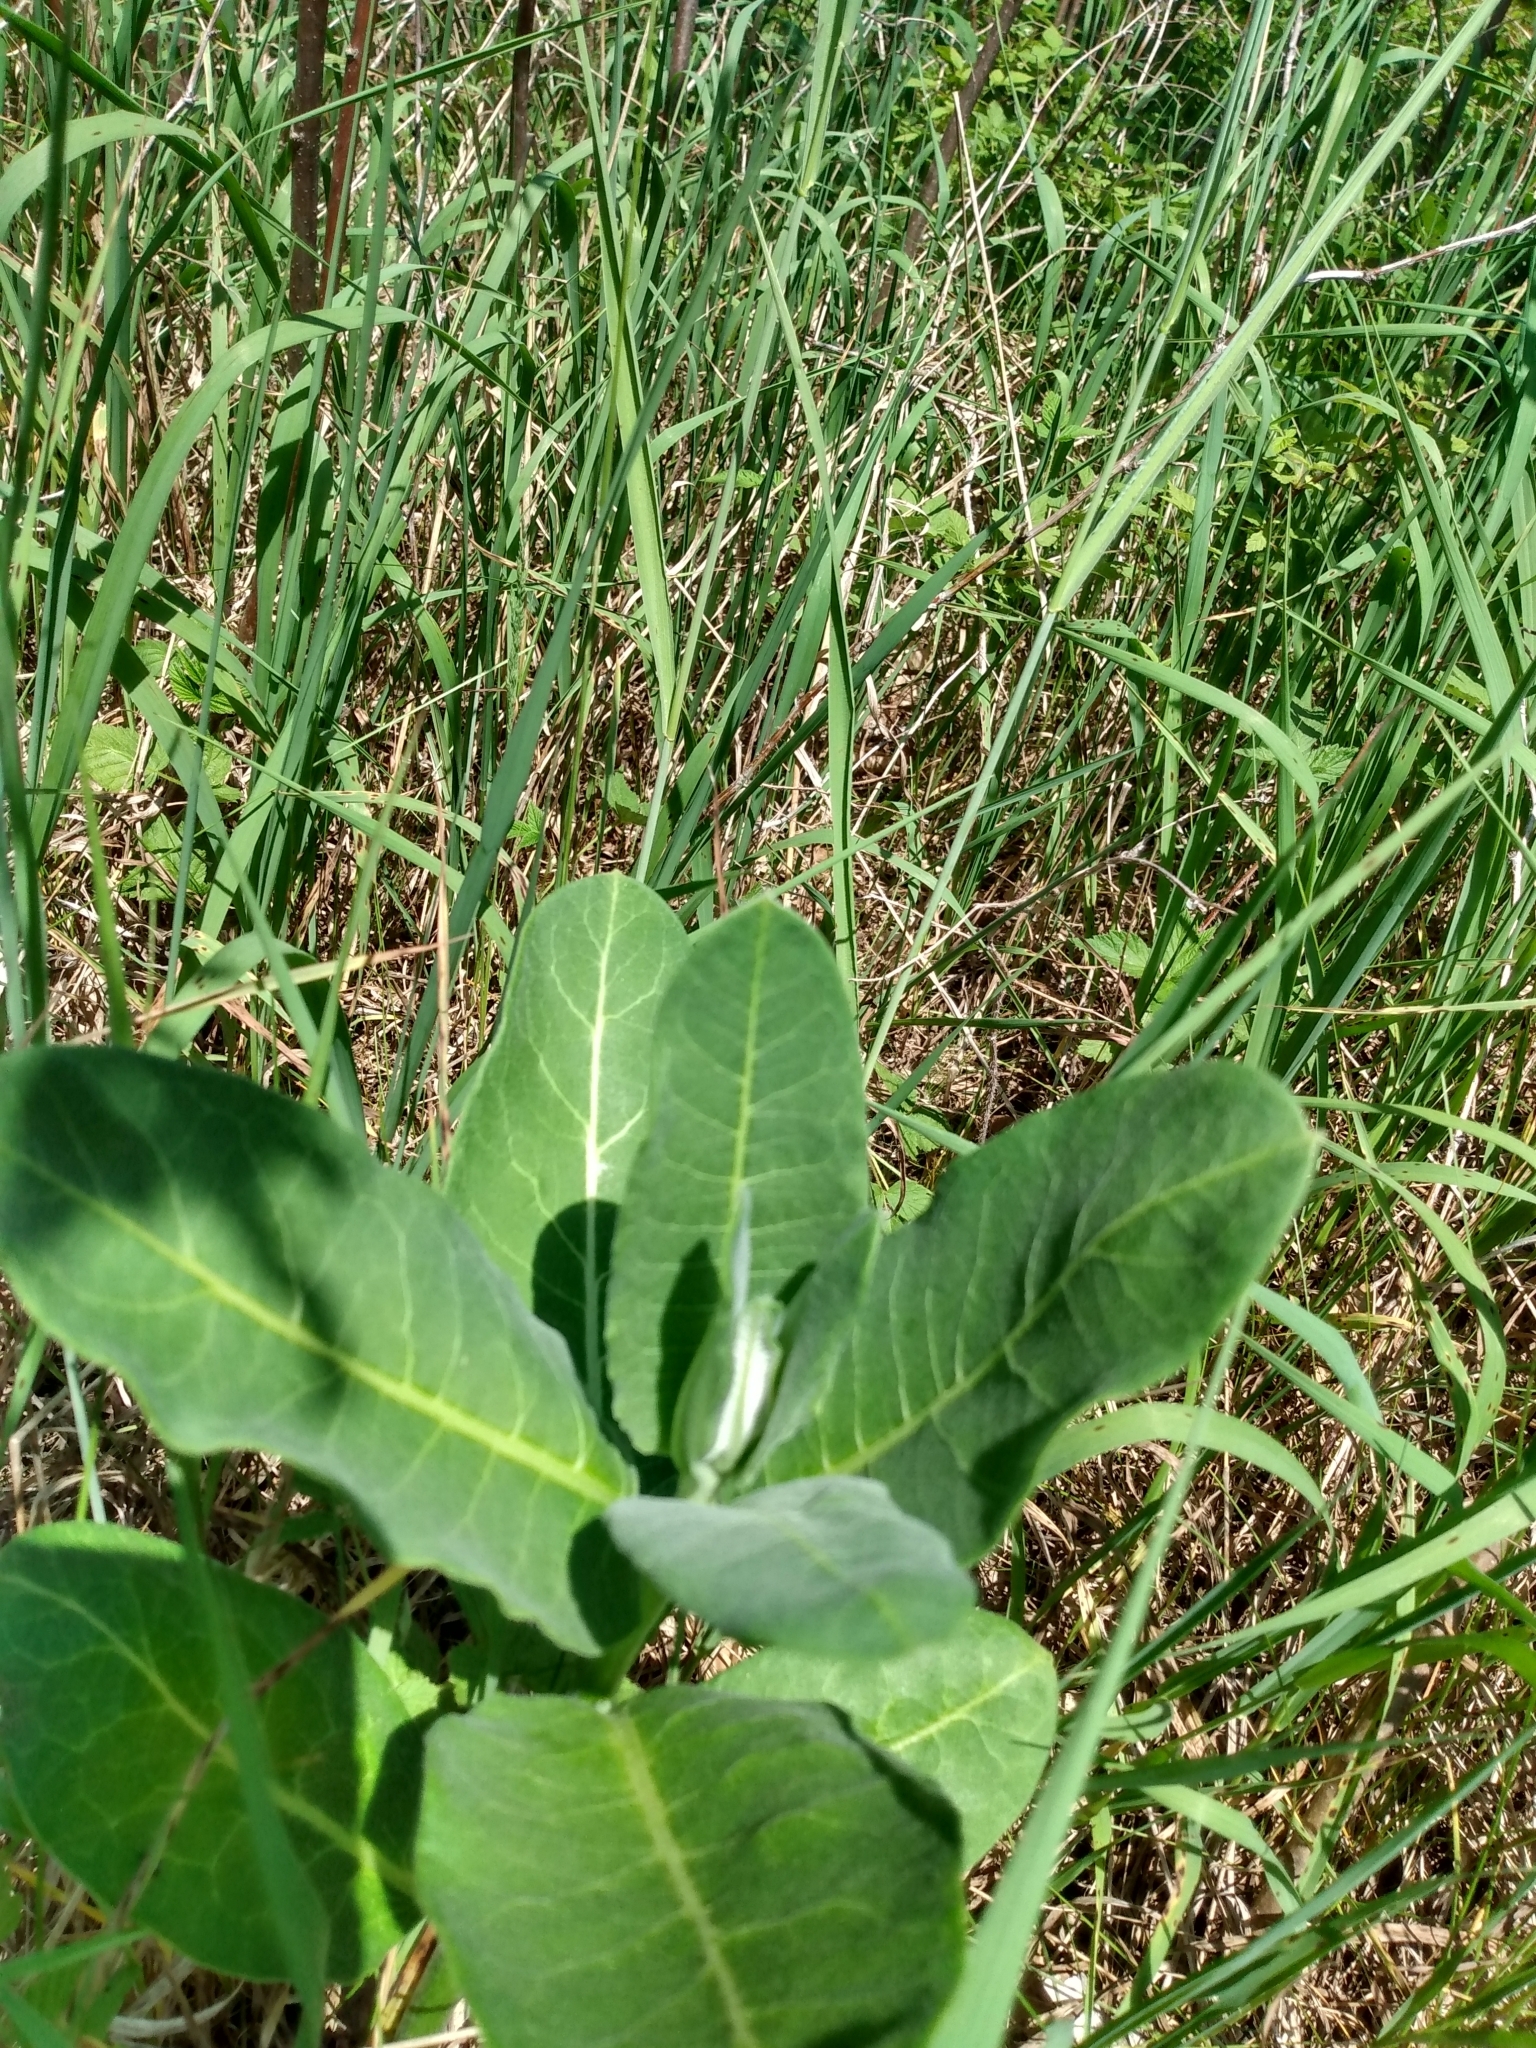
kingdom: Plantae
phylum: Tracheophyta
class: Magnoliopsida
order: Gentianales
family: Apocynaceae
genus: Asclepias
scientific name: Asclepias syriaca
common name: Common milkweed
